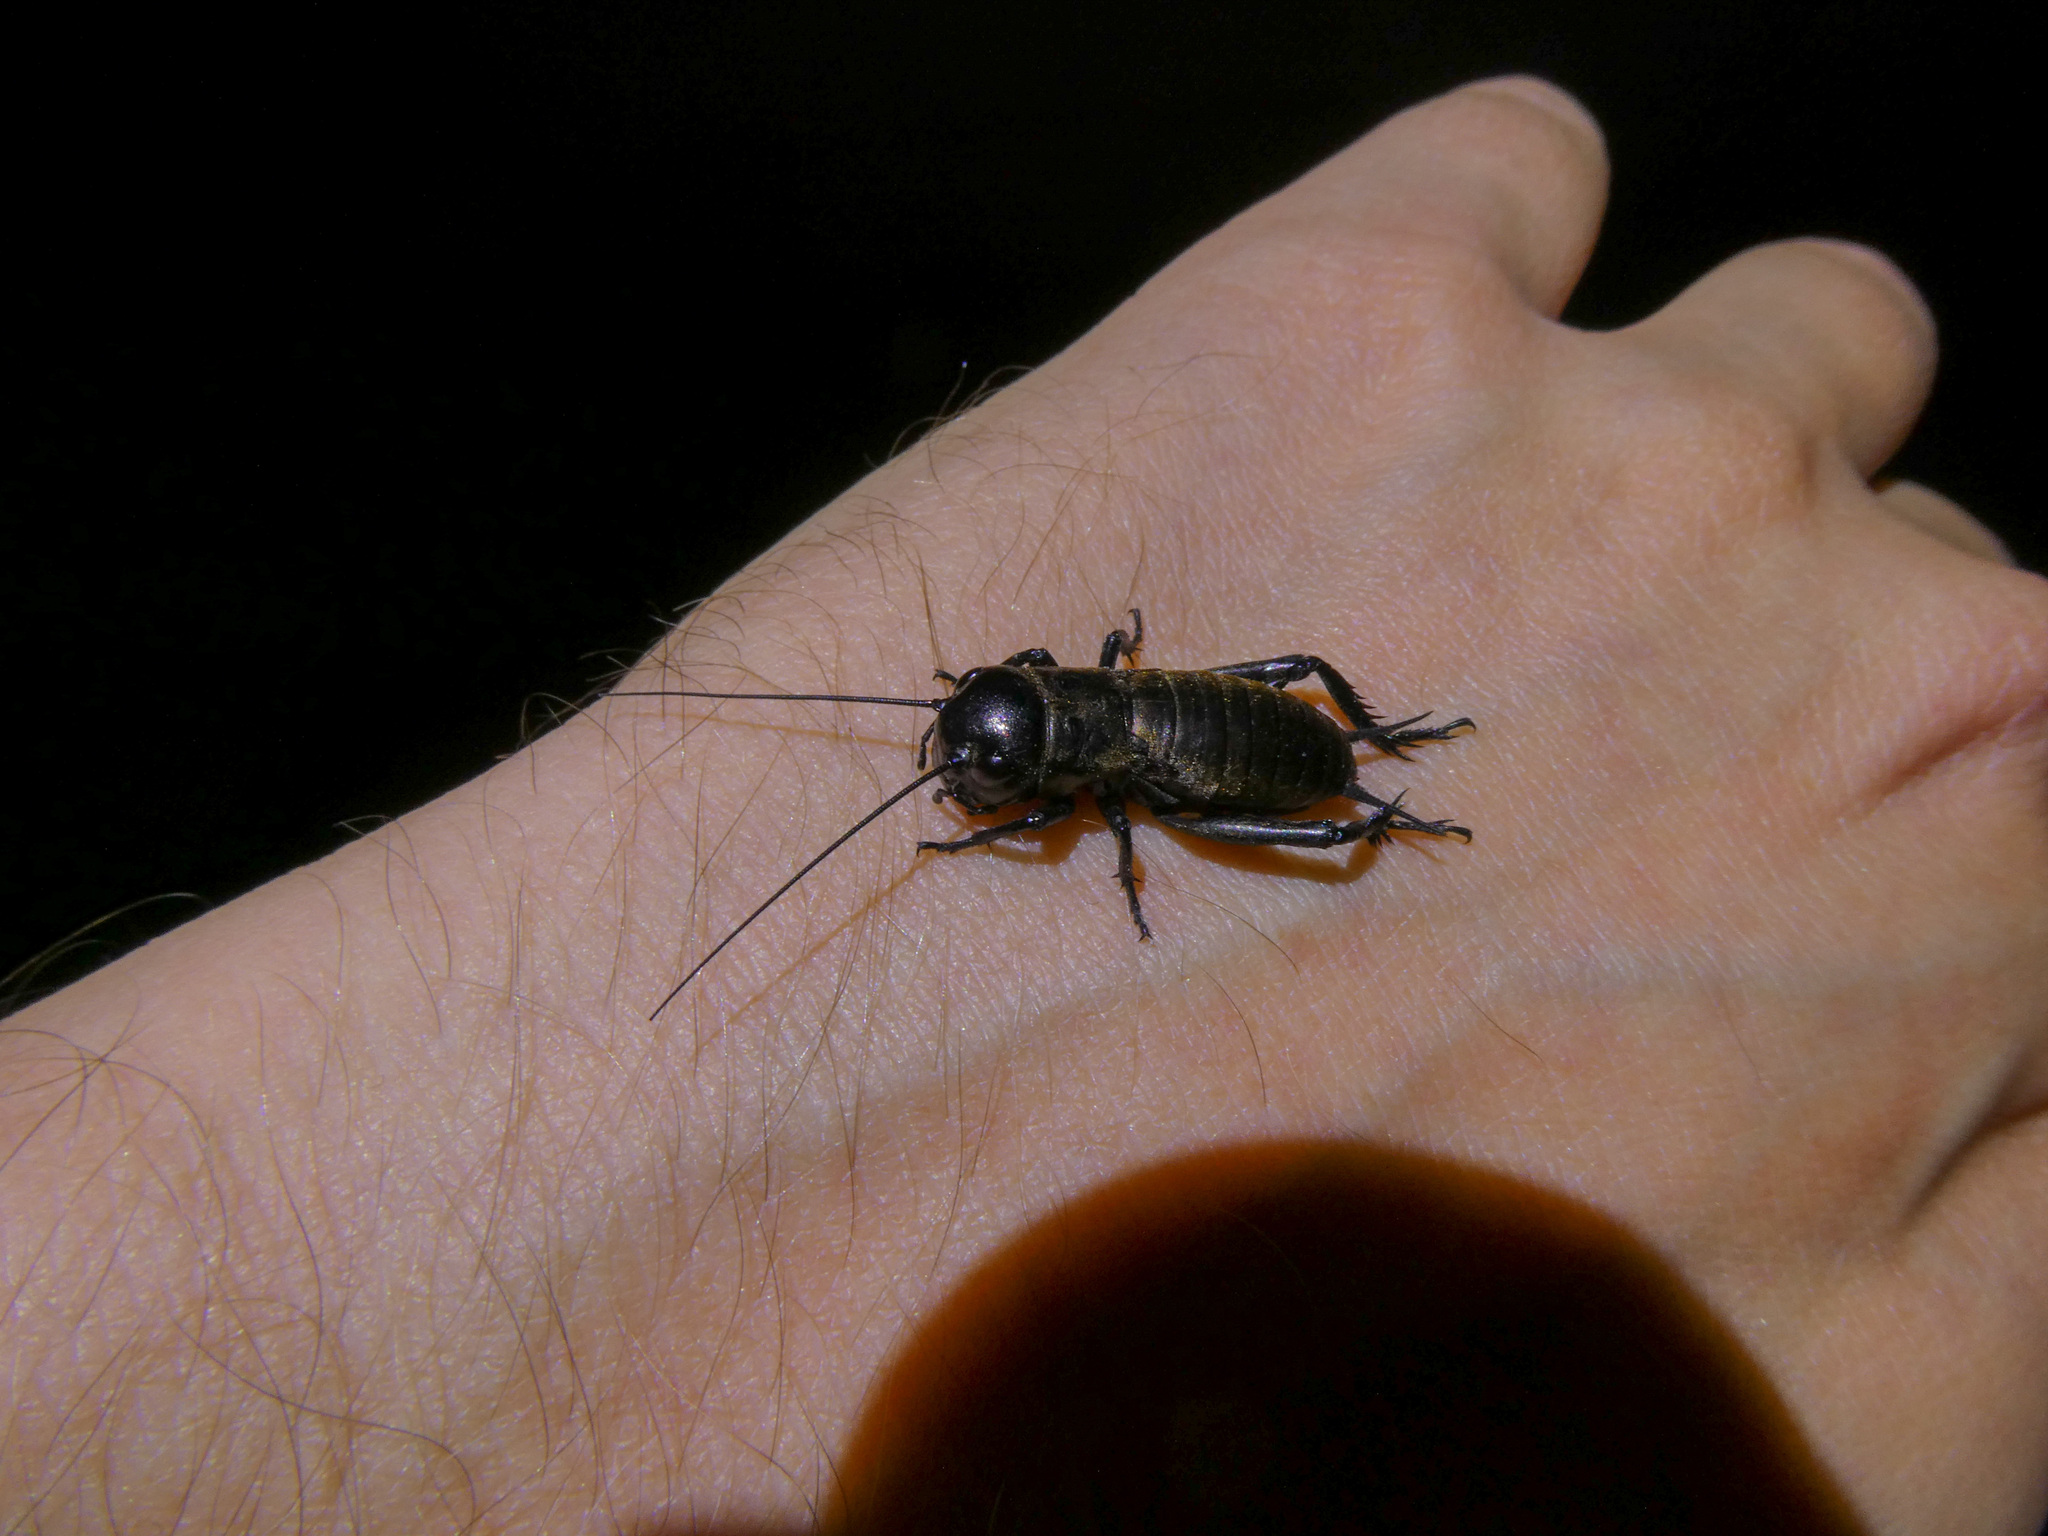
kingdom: Animalia
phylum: Arthropoda
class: Insecta
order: Orthoptera
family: Gryllidae
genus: Gryllus
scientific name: Gryllus campestris
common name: Field cricket
